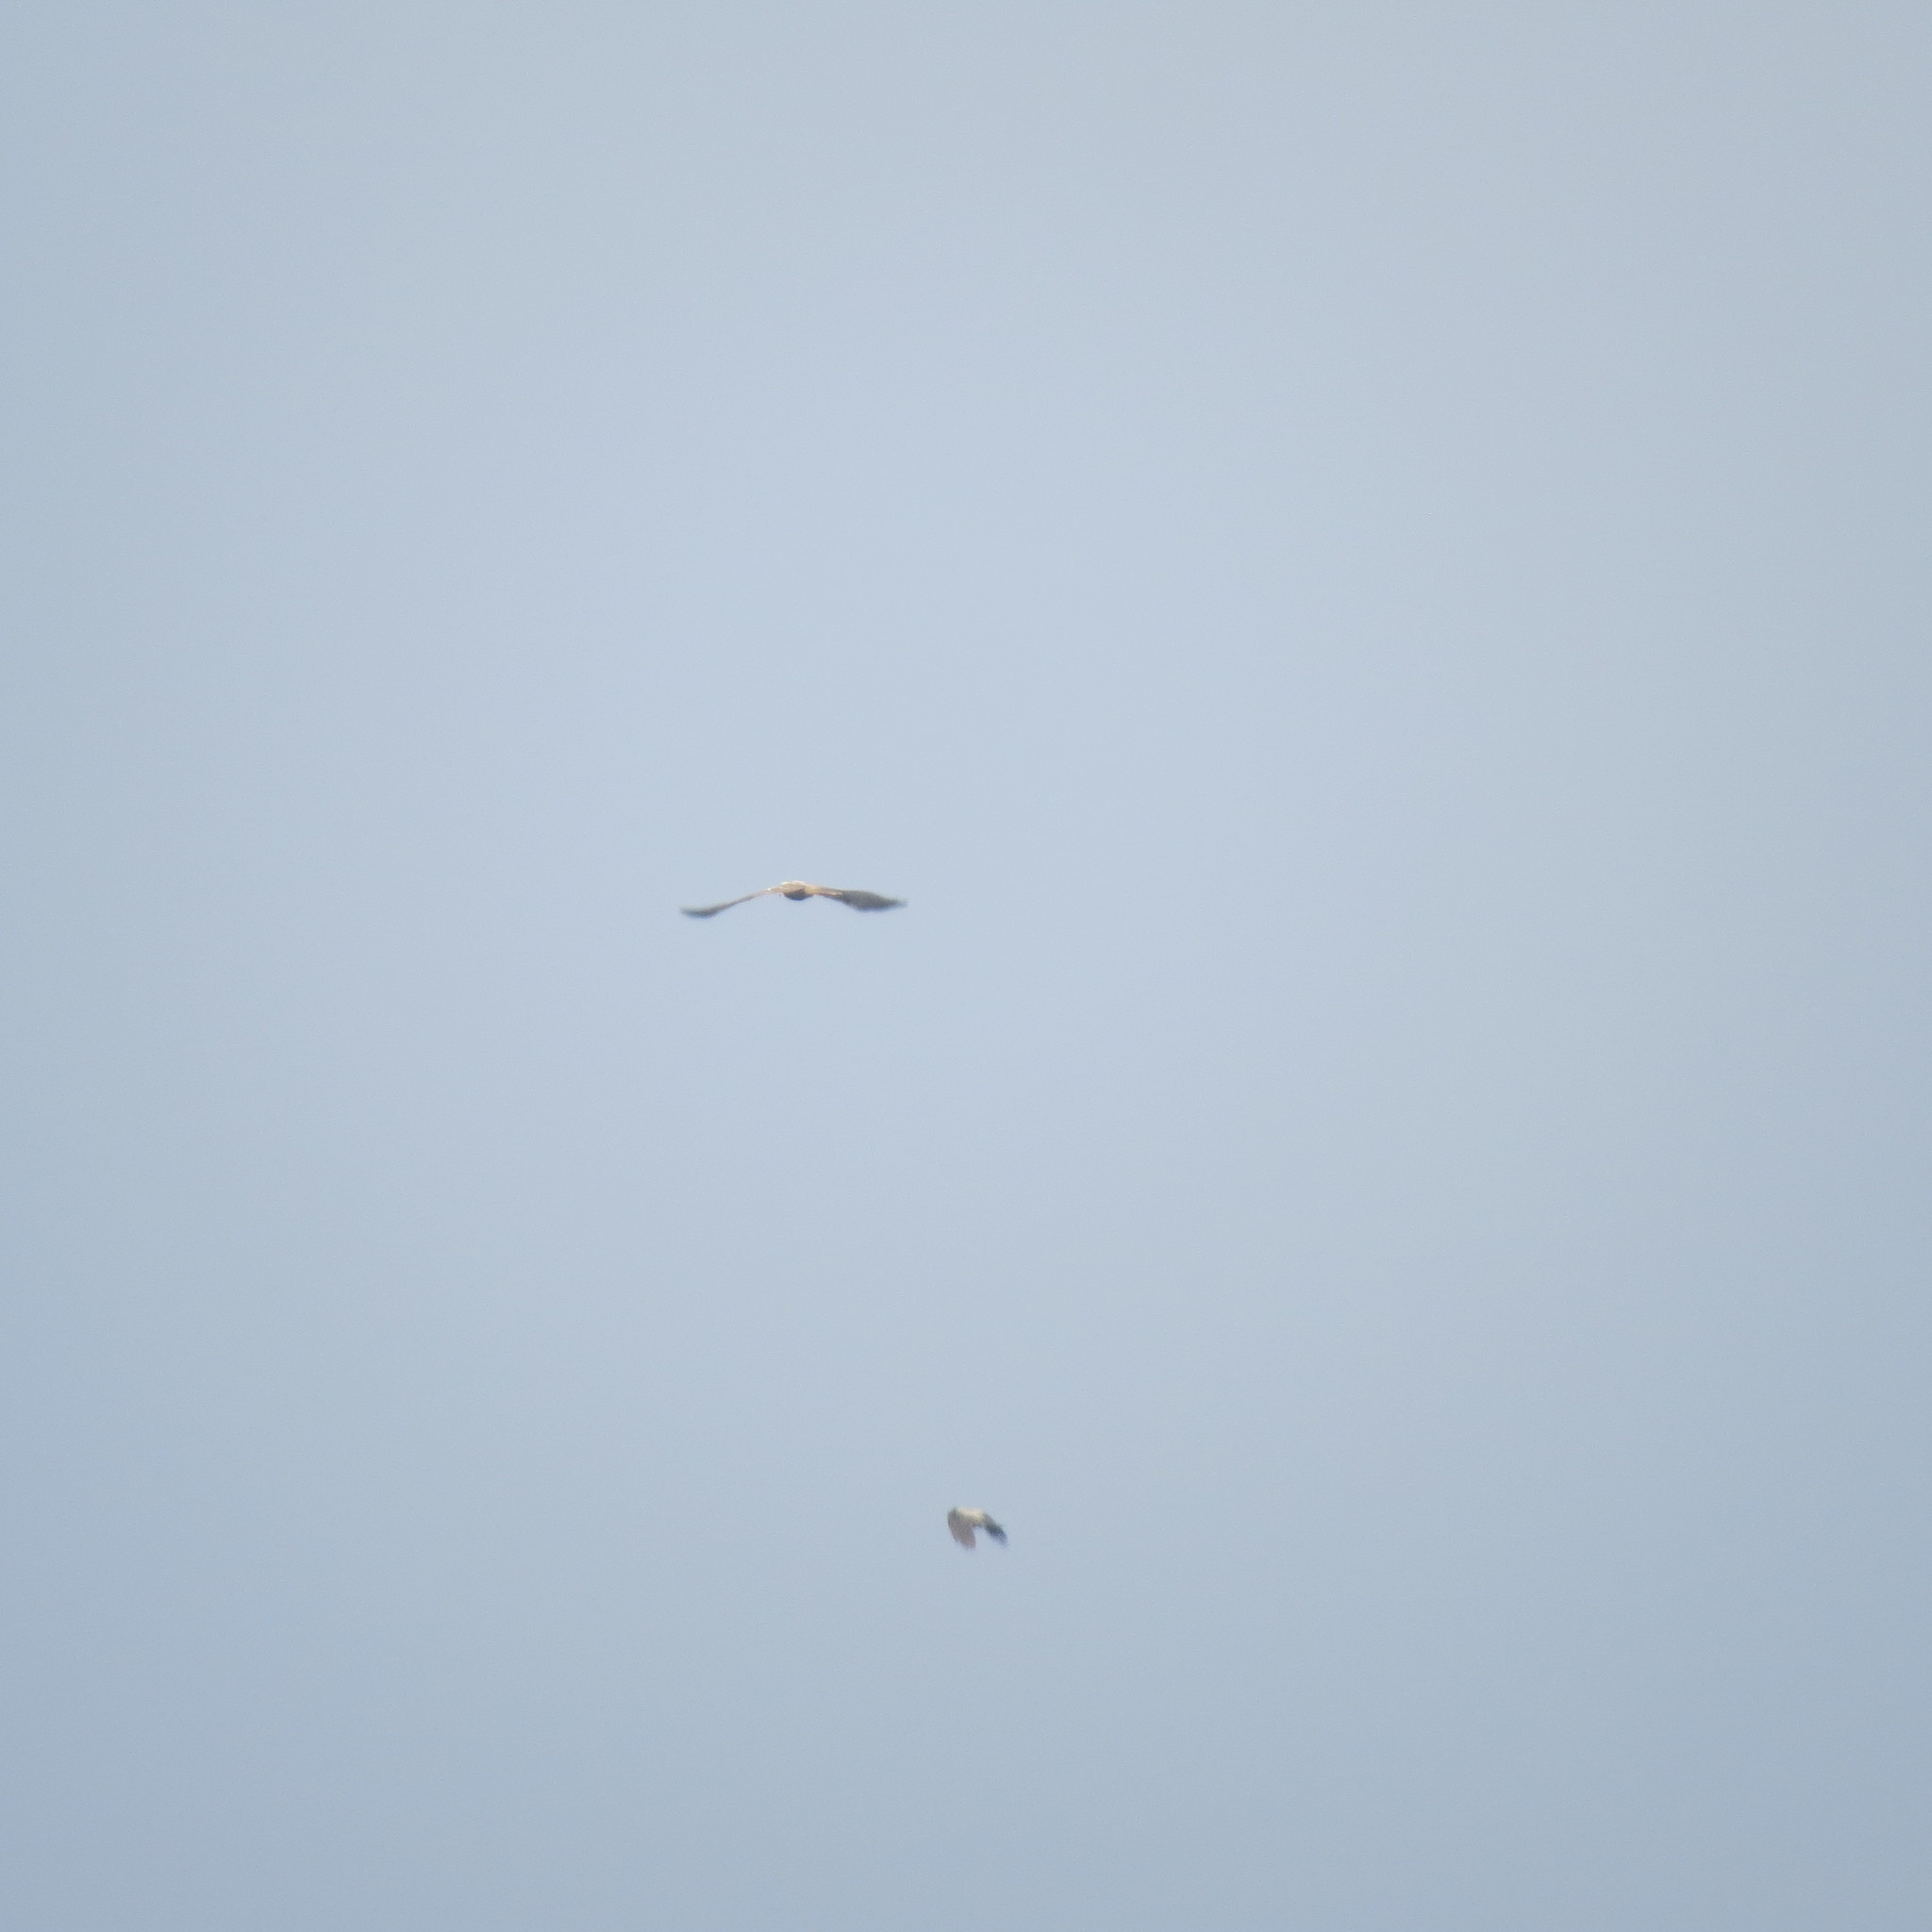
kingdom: Animalia
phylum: Chordata
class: Aves
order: Accipitriformes
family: Accipitridae
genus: Milvus
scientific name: Milvus migrans
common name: Black kite
